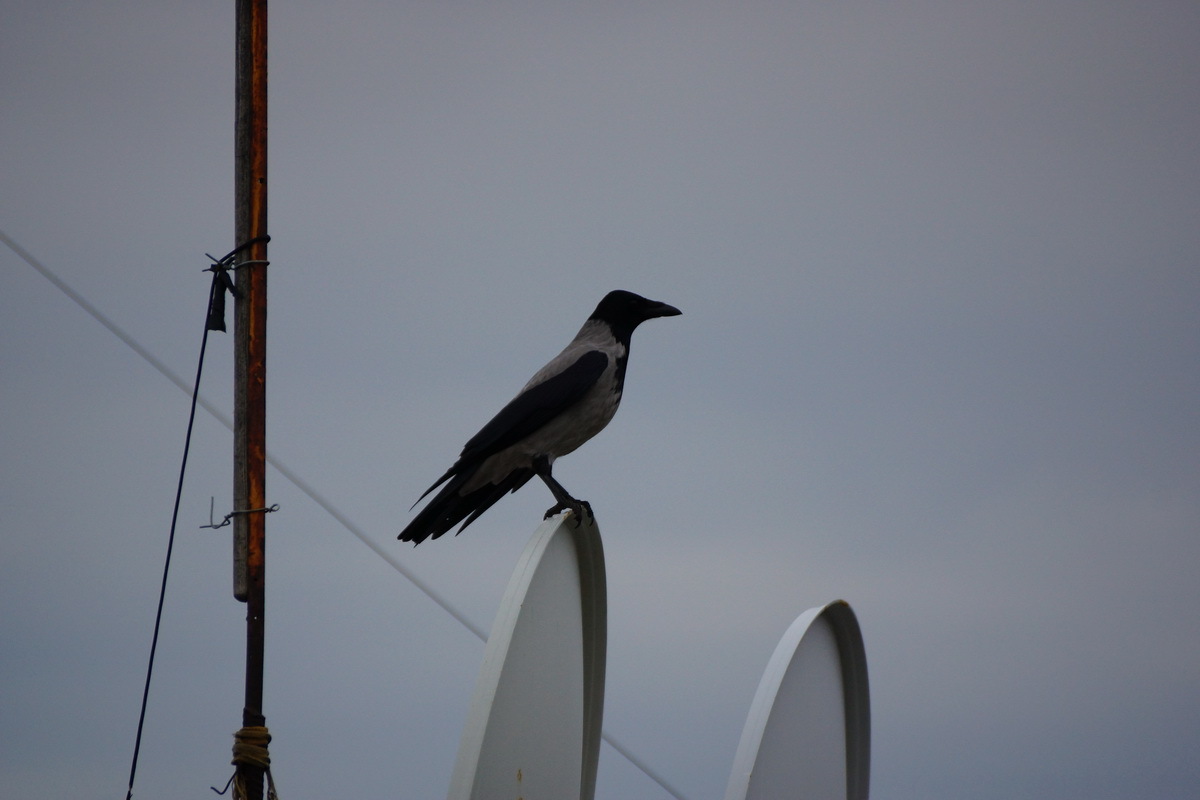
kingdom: Animalia
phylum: Chordata
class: Aves
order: Passeriformes
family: Corvidae
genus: Corvus
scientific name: Corvus cornix
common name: Hooded crow
